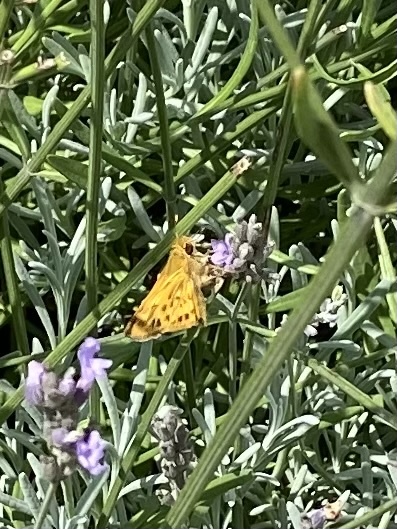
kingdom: Animalia
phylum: Arthropoda
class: Insecta
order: Lepidoptera
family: Hesperiidae
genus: Hylephila
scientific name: Hylephila phyleus
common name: Fiery skipper
